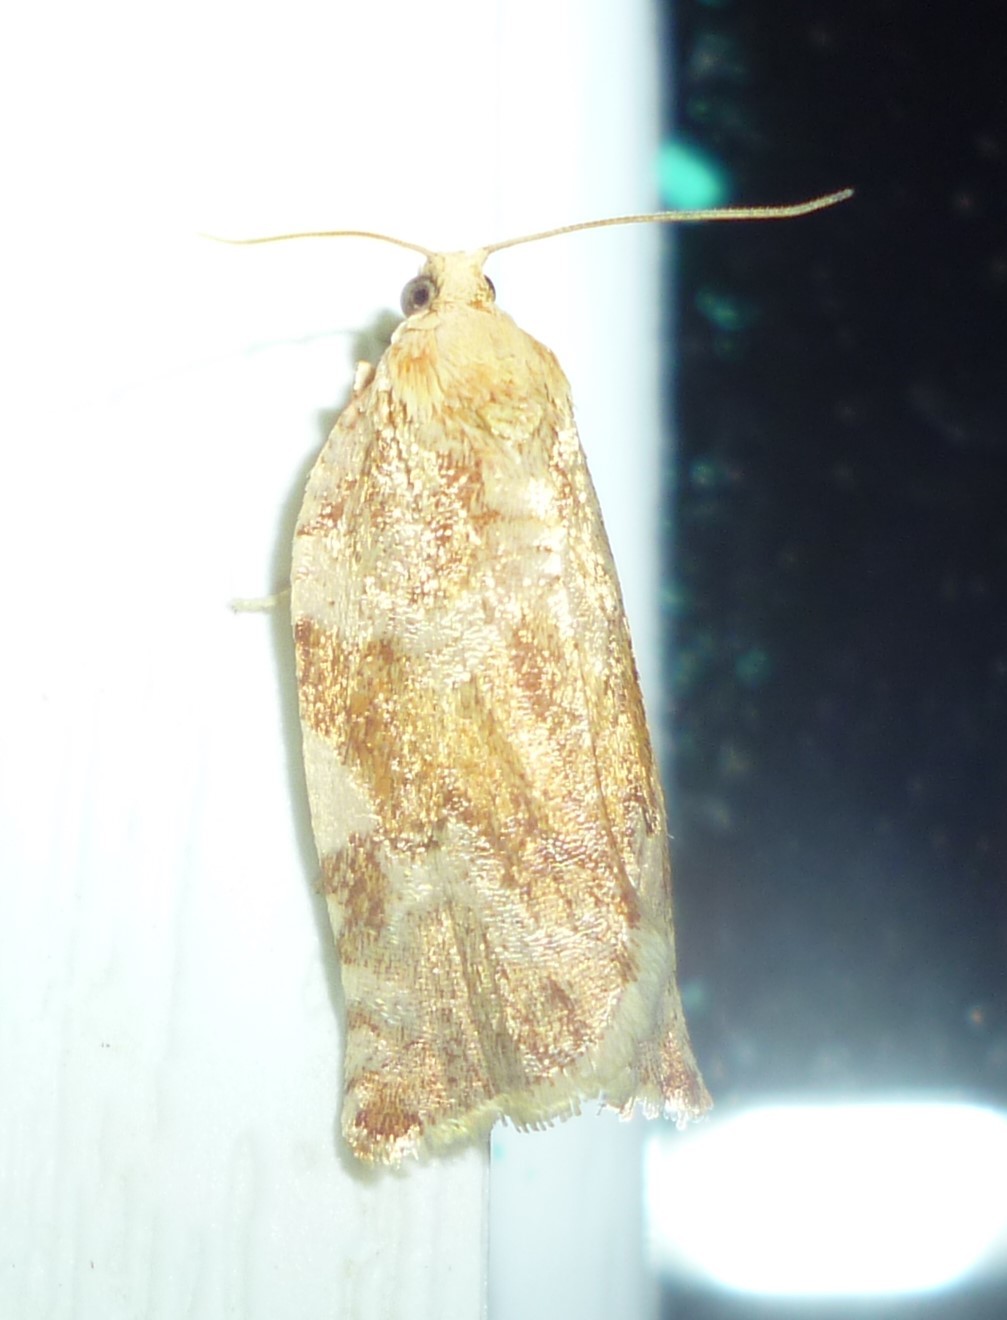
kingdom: Animalia
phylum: Arthropoda
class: Insecta
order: Lepidoptera
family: Tortricidae
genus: Archips
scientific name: Archips semiferanus
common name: Oak leafroller
